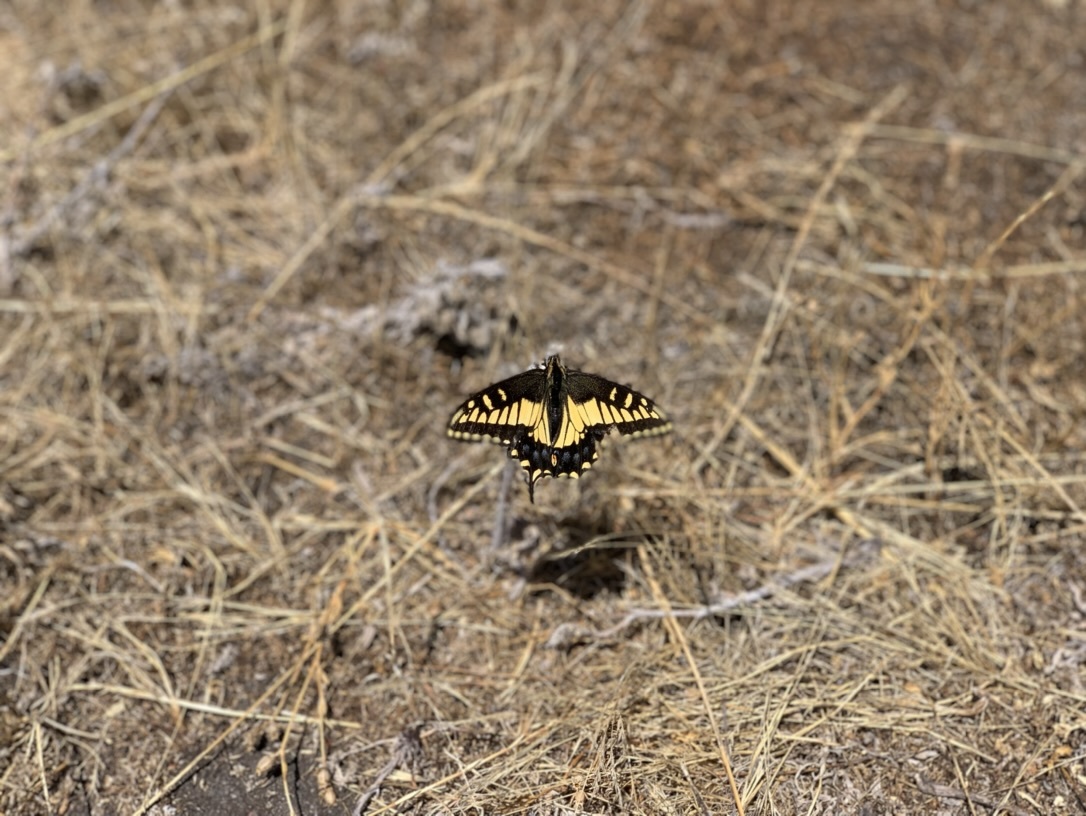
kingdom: Animalia
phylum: Arthropoda
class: Insecta
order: Lepidoptera
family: Papilionidae
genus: Papilio
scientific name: Papilio zelicaon
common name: Anise swallowtail
